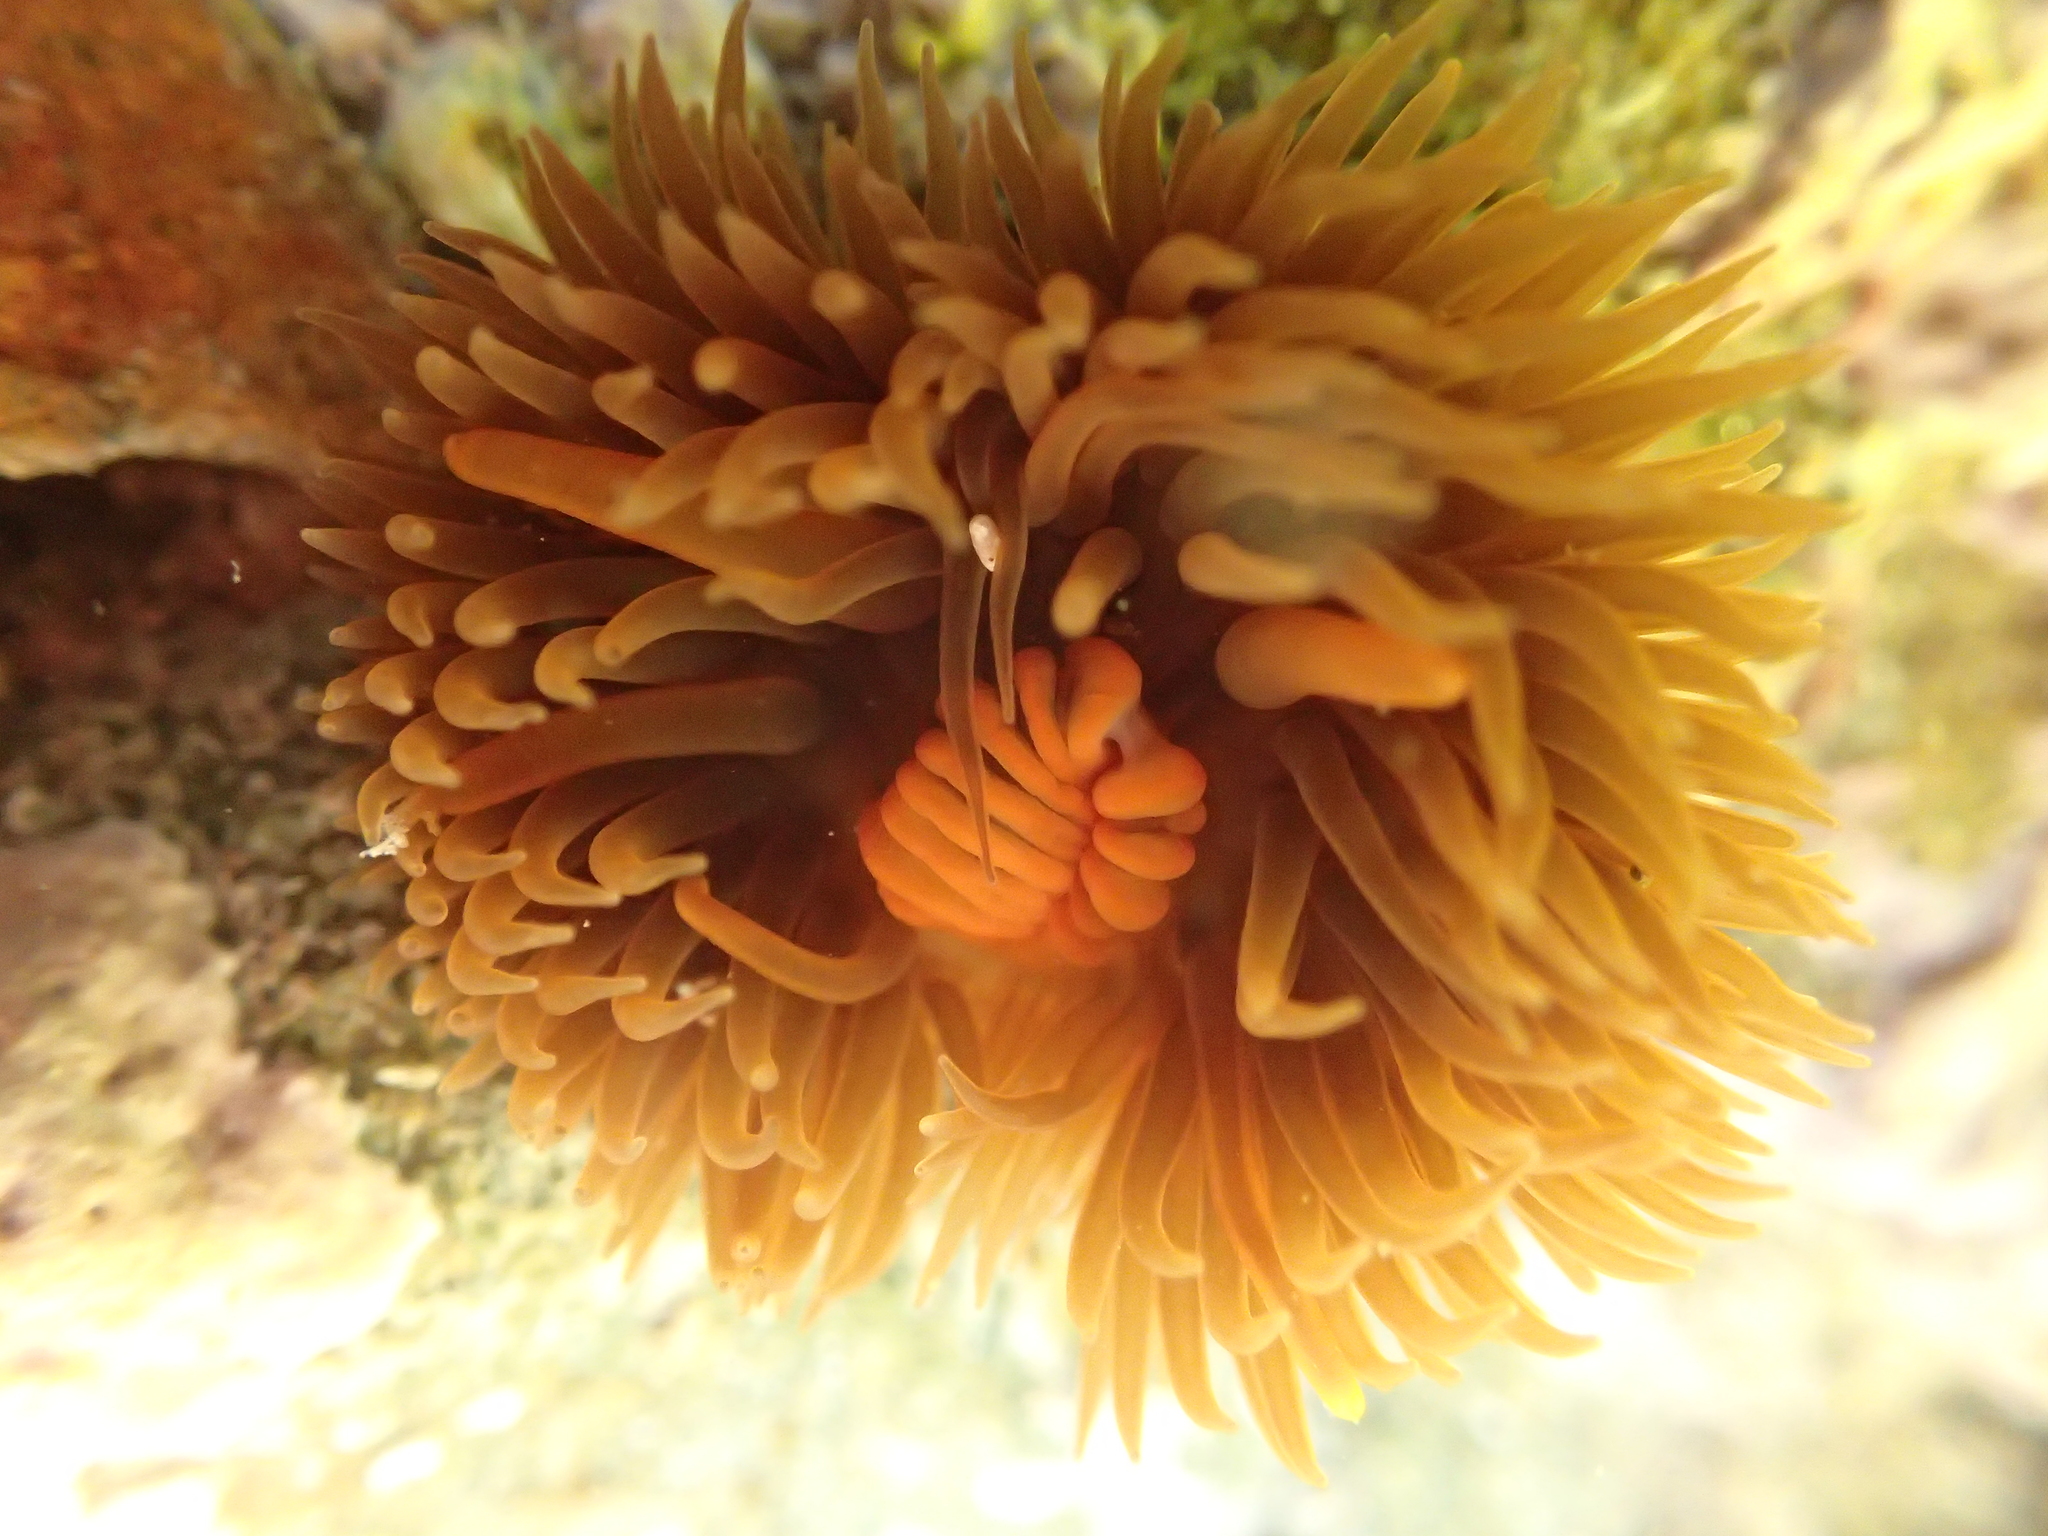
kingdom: Animalia
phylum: Cnidaria
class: Anthozoa
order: Actiniaria
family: Diadumenidae
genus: Diadumene
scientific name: Diadumene neozelanica
